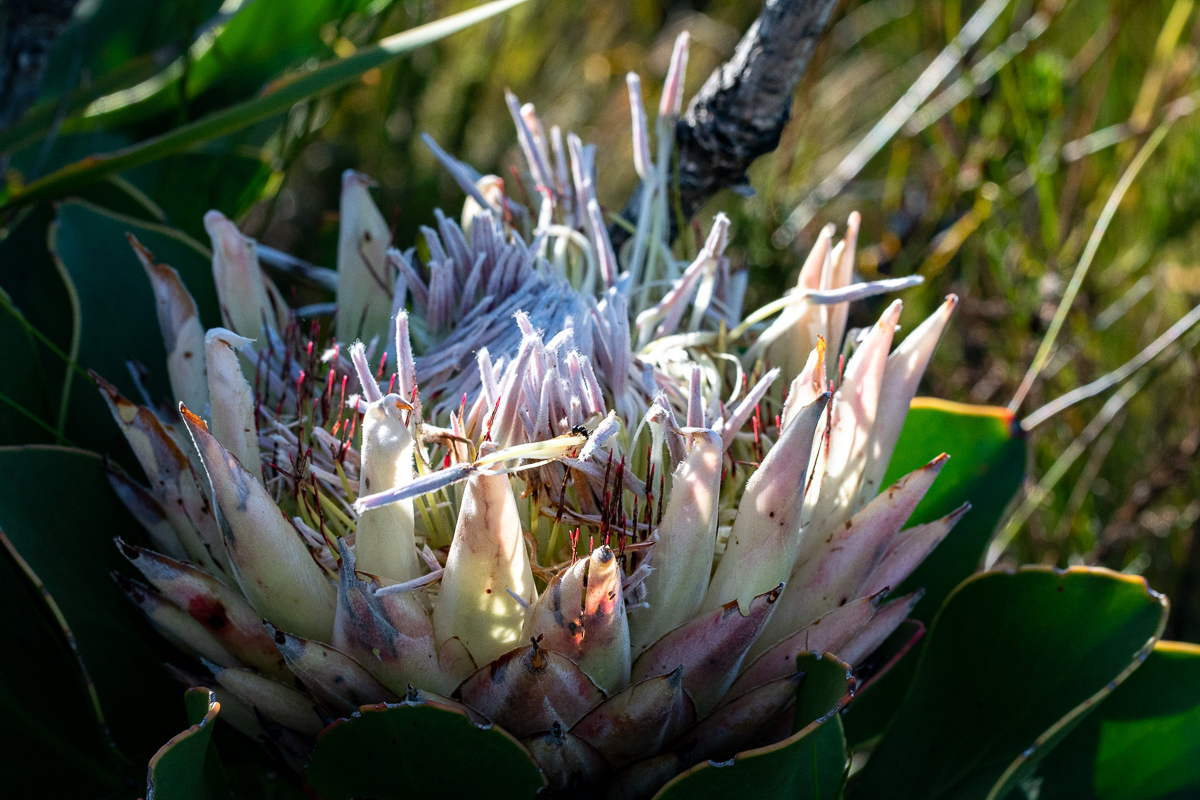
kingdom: Plantae
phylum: Tracheophyta
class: Magnoliopsida
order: Proteales
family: Proteaceae
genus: Protea
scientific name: Protea cynaroides
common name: King protea
